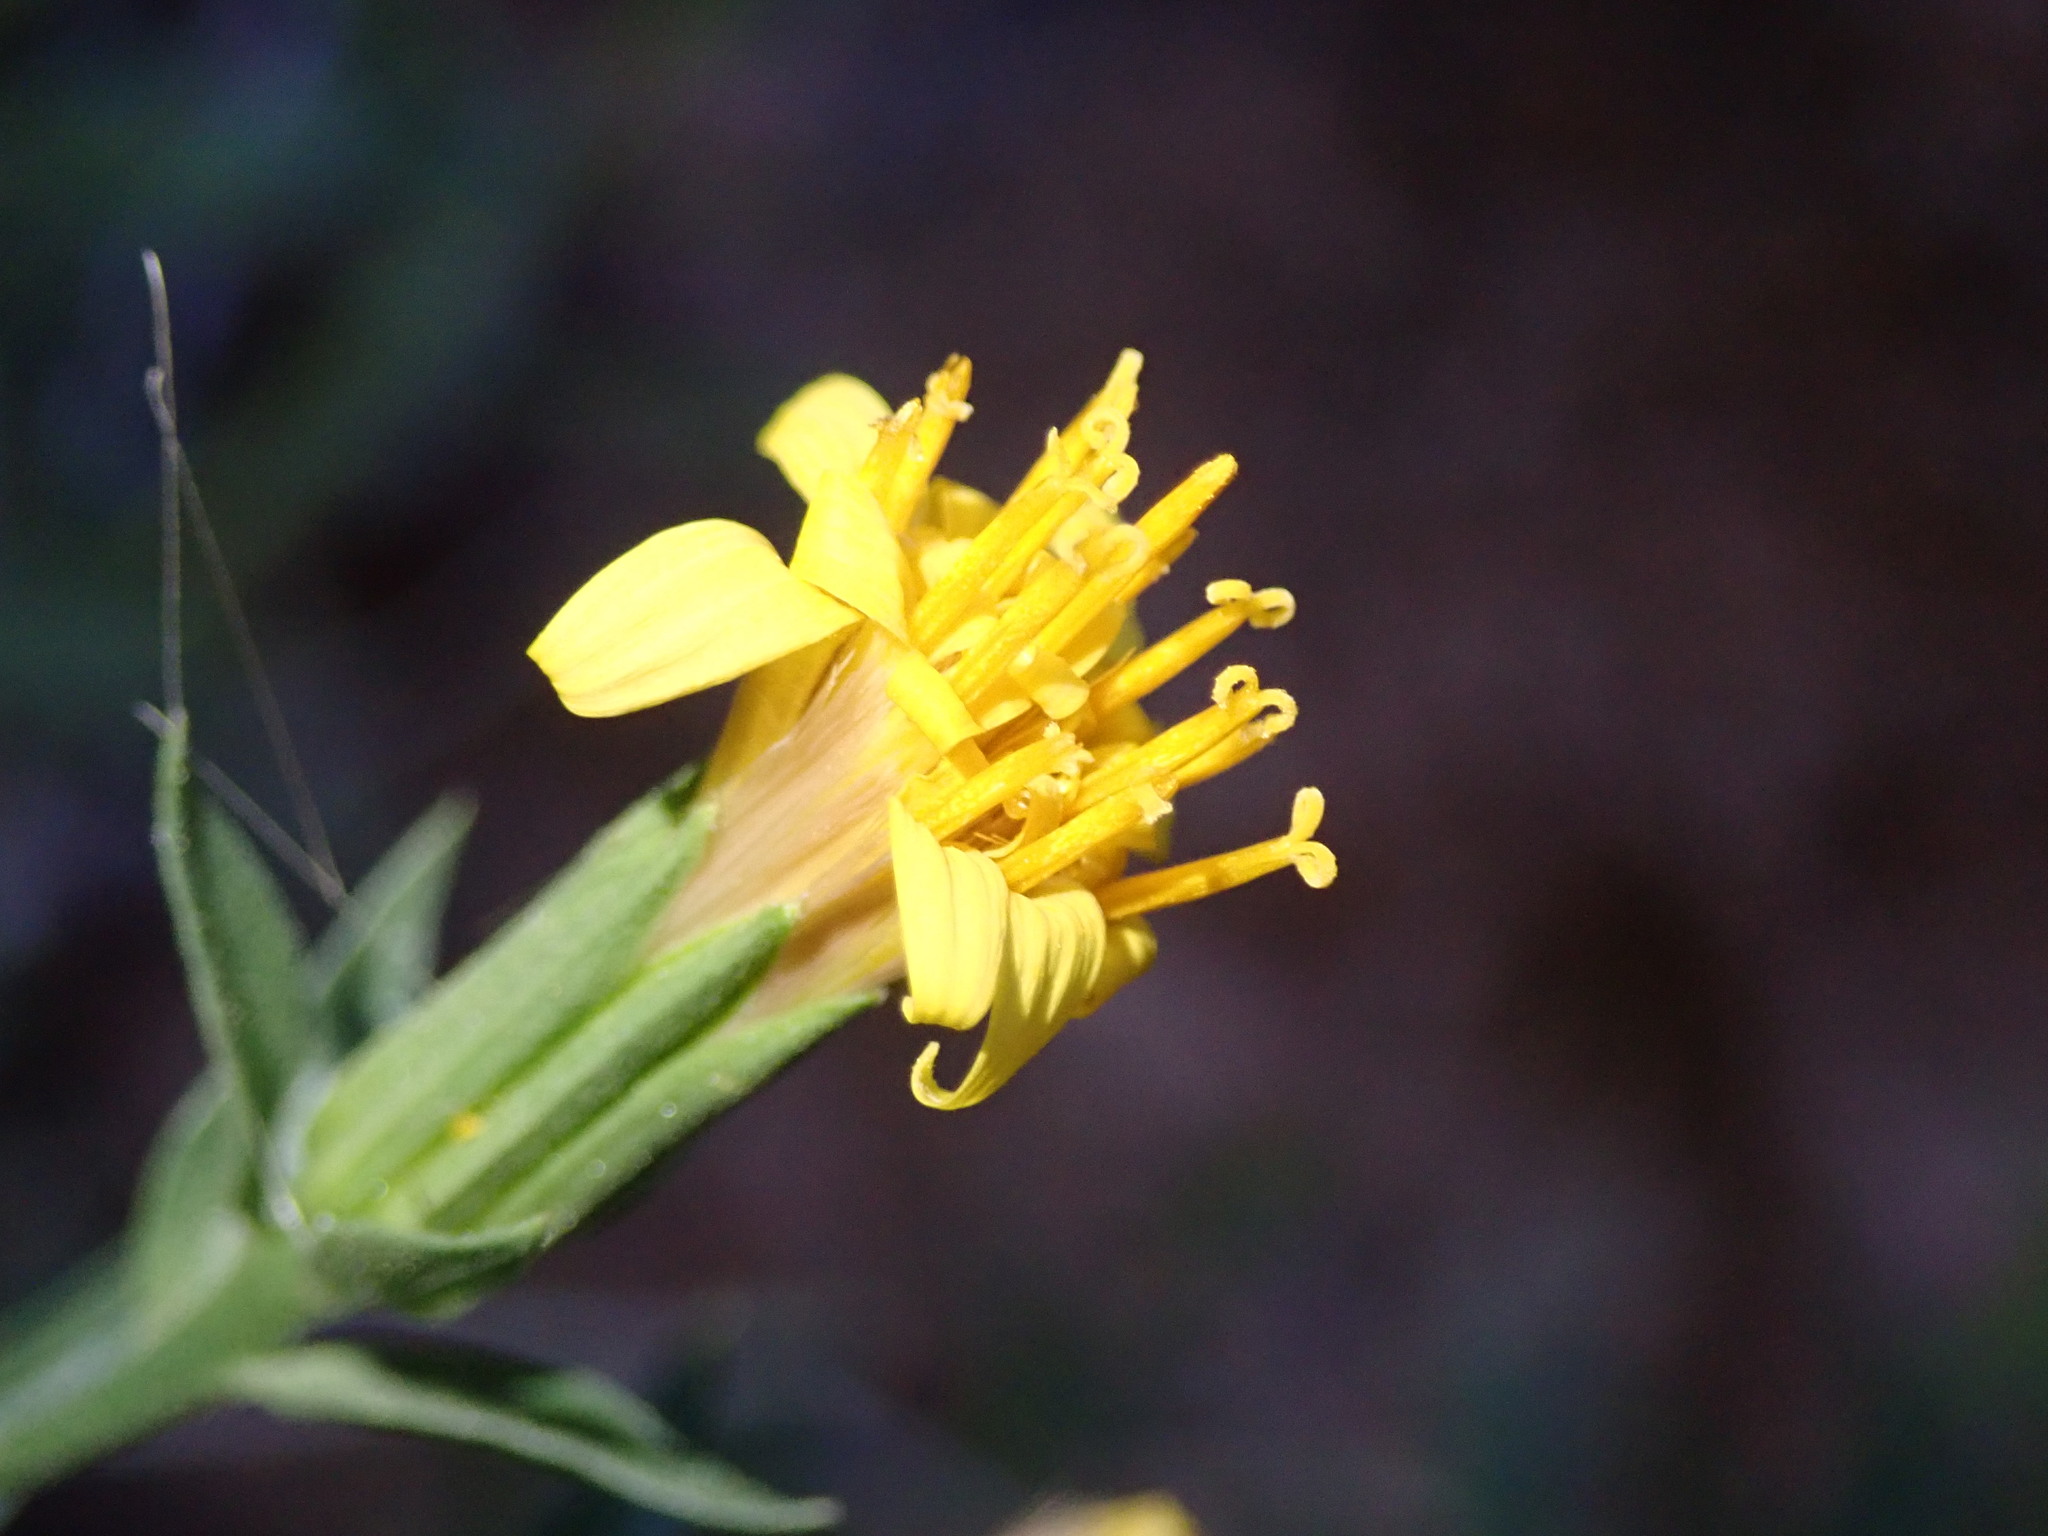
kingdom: Plantae
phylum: Tracheophyta
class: Magnoliopsida
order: Asterales
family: Asteraceae
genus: Trixis
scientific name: Trixis californica
